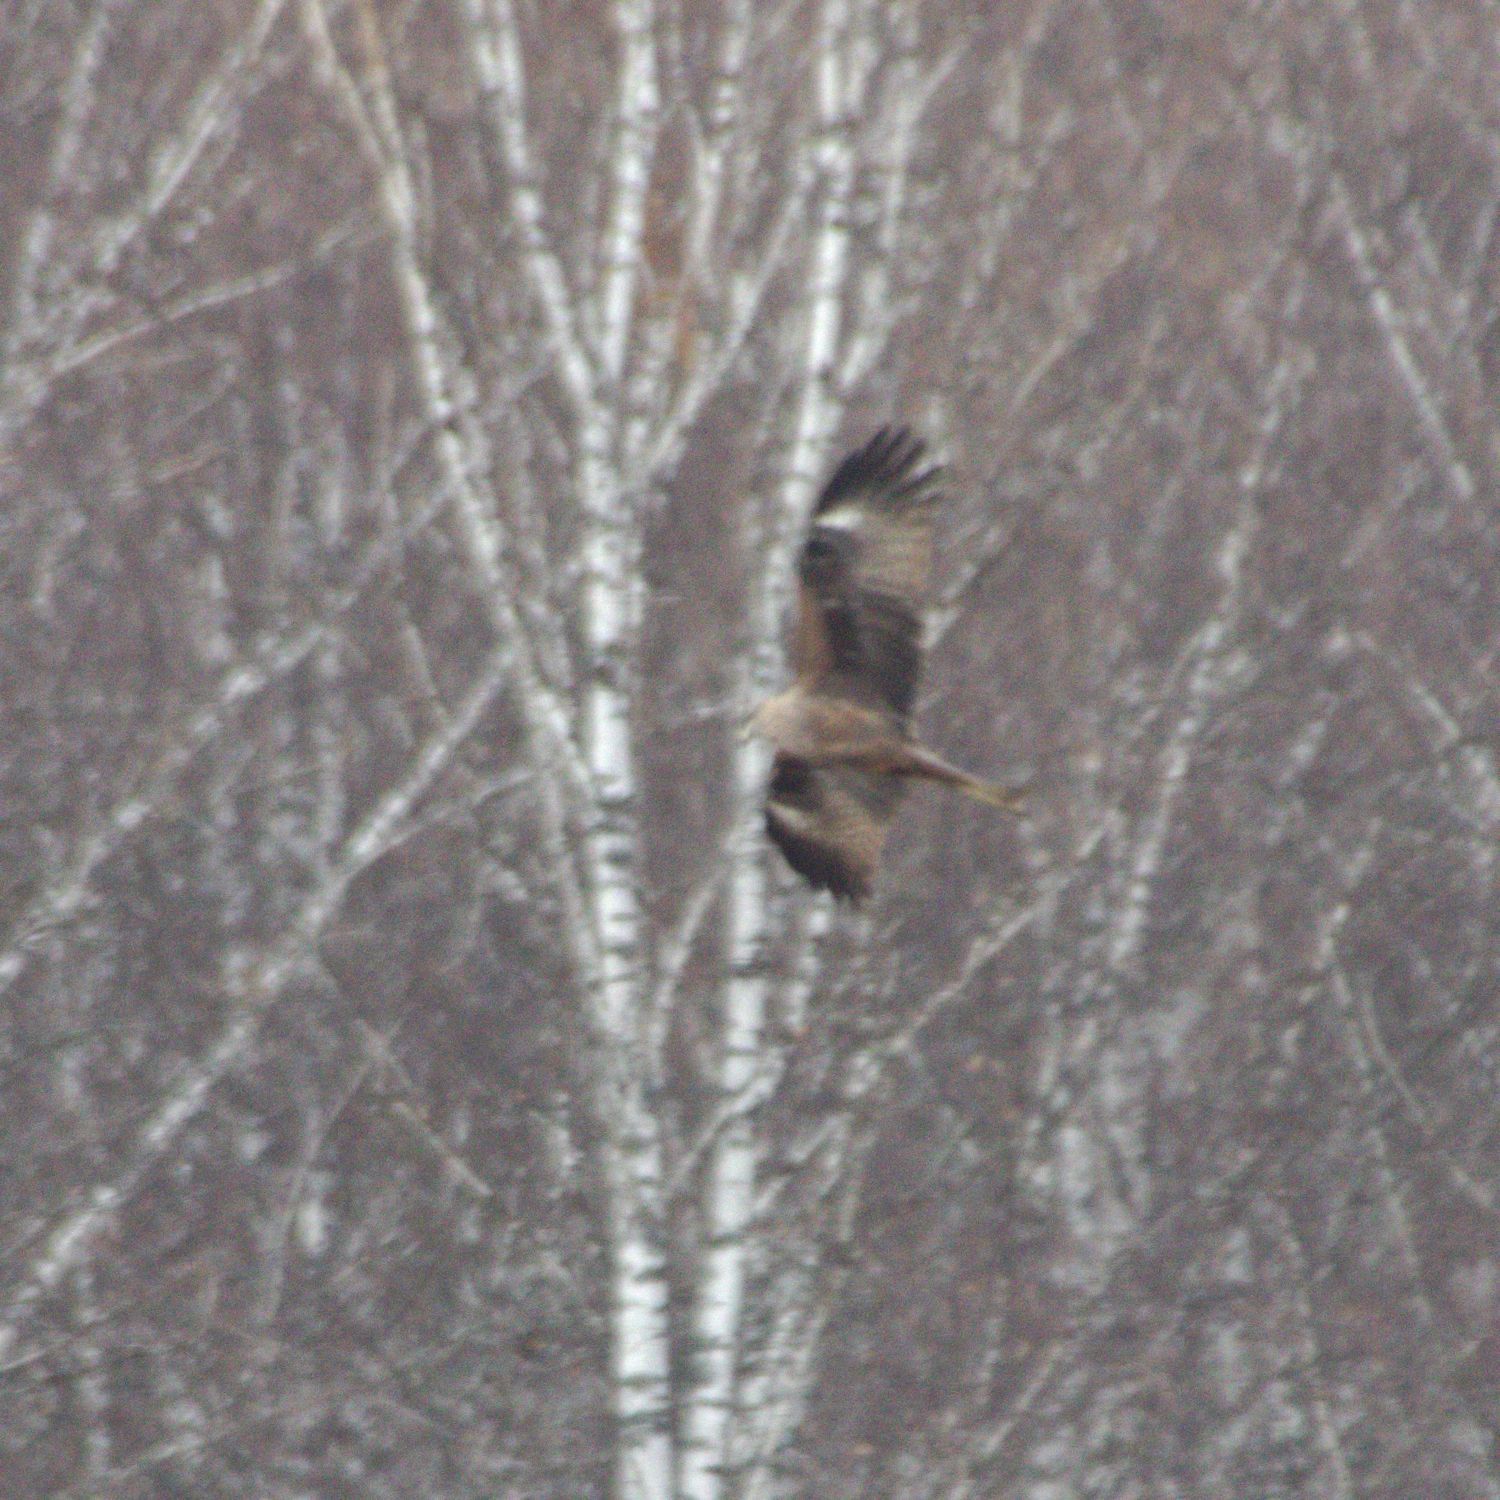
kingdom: Animalia
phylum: Chordata
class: Aves
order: Accipitriformes
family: Accipitridae
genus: Milvus
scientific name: Milvus migrans
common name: Black kite
